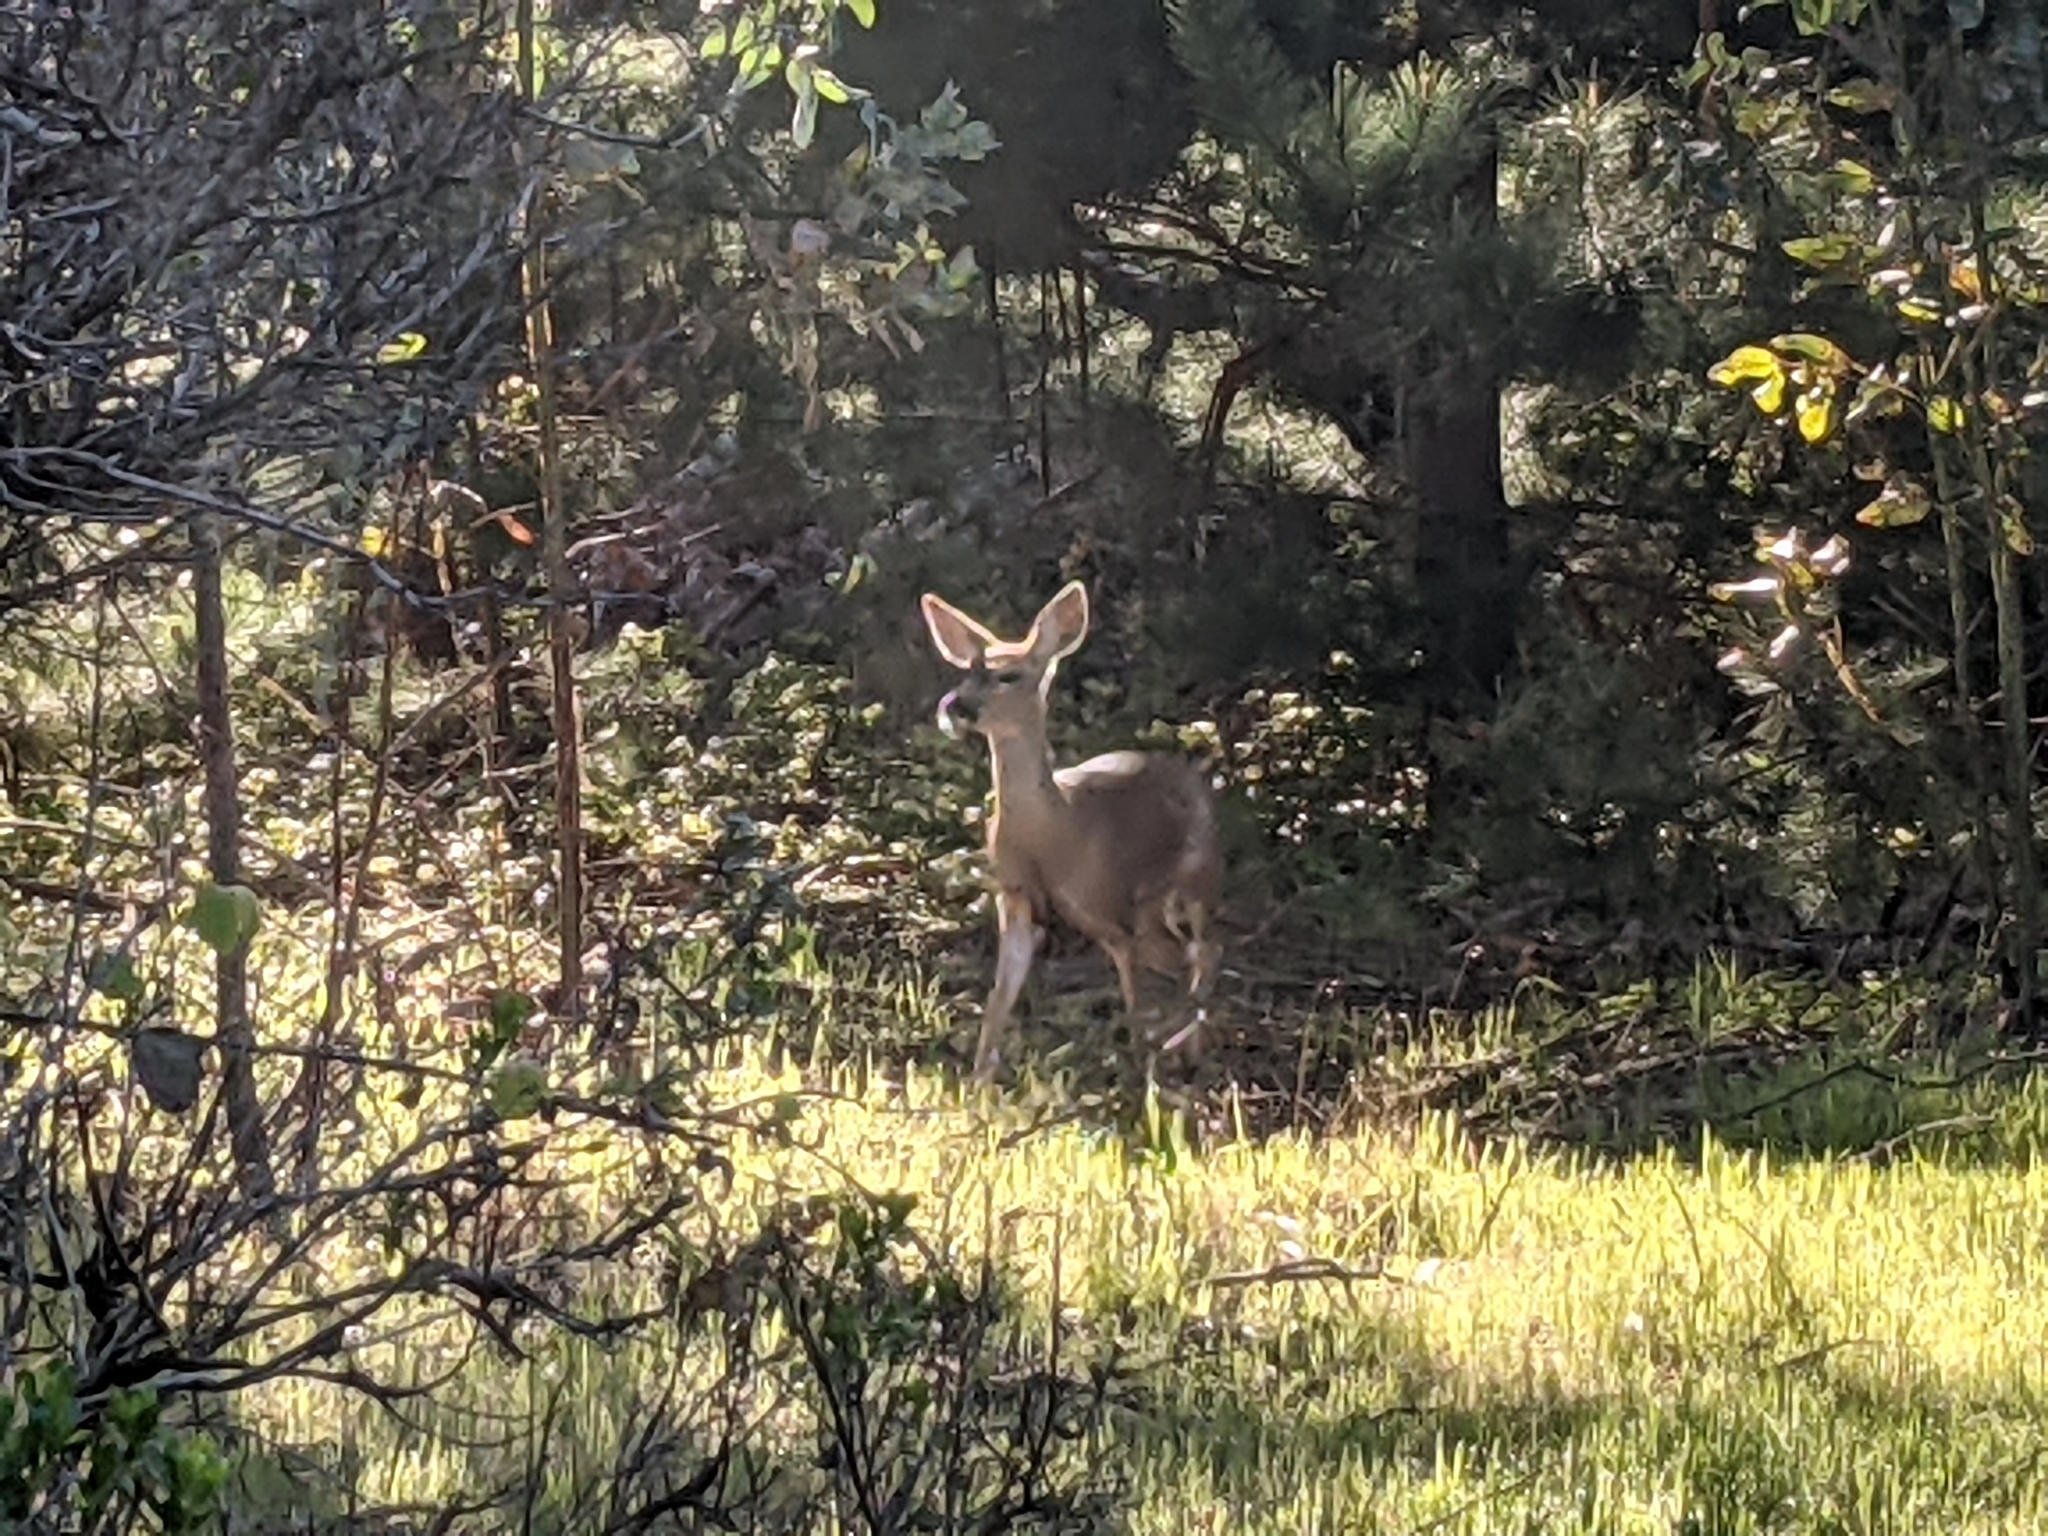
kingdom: Animalia
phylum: Chordata
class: Mammalia
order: Artiodactyla
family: Cervidae
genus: Odocoileus
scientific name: Odocoileus hemionus
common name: Mule deer
